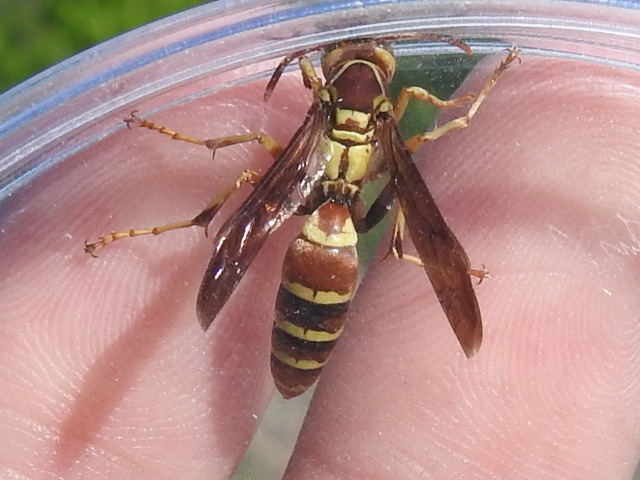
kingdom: Animalia
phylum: Arthropoda
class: Insecta
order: Hymenoptera
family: Eumenidae
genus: Polistes
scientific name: Polistes dorsalis
